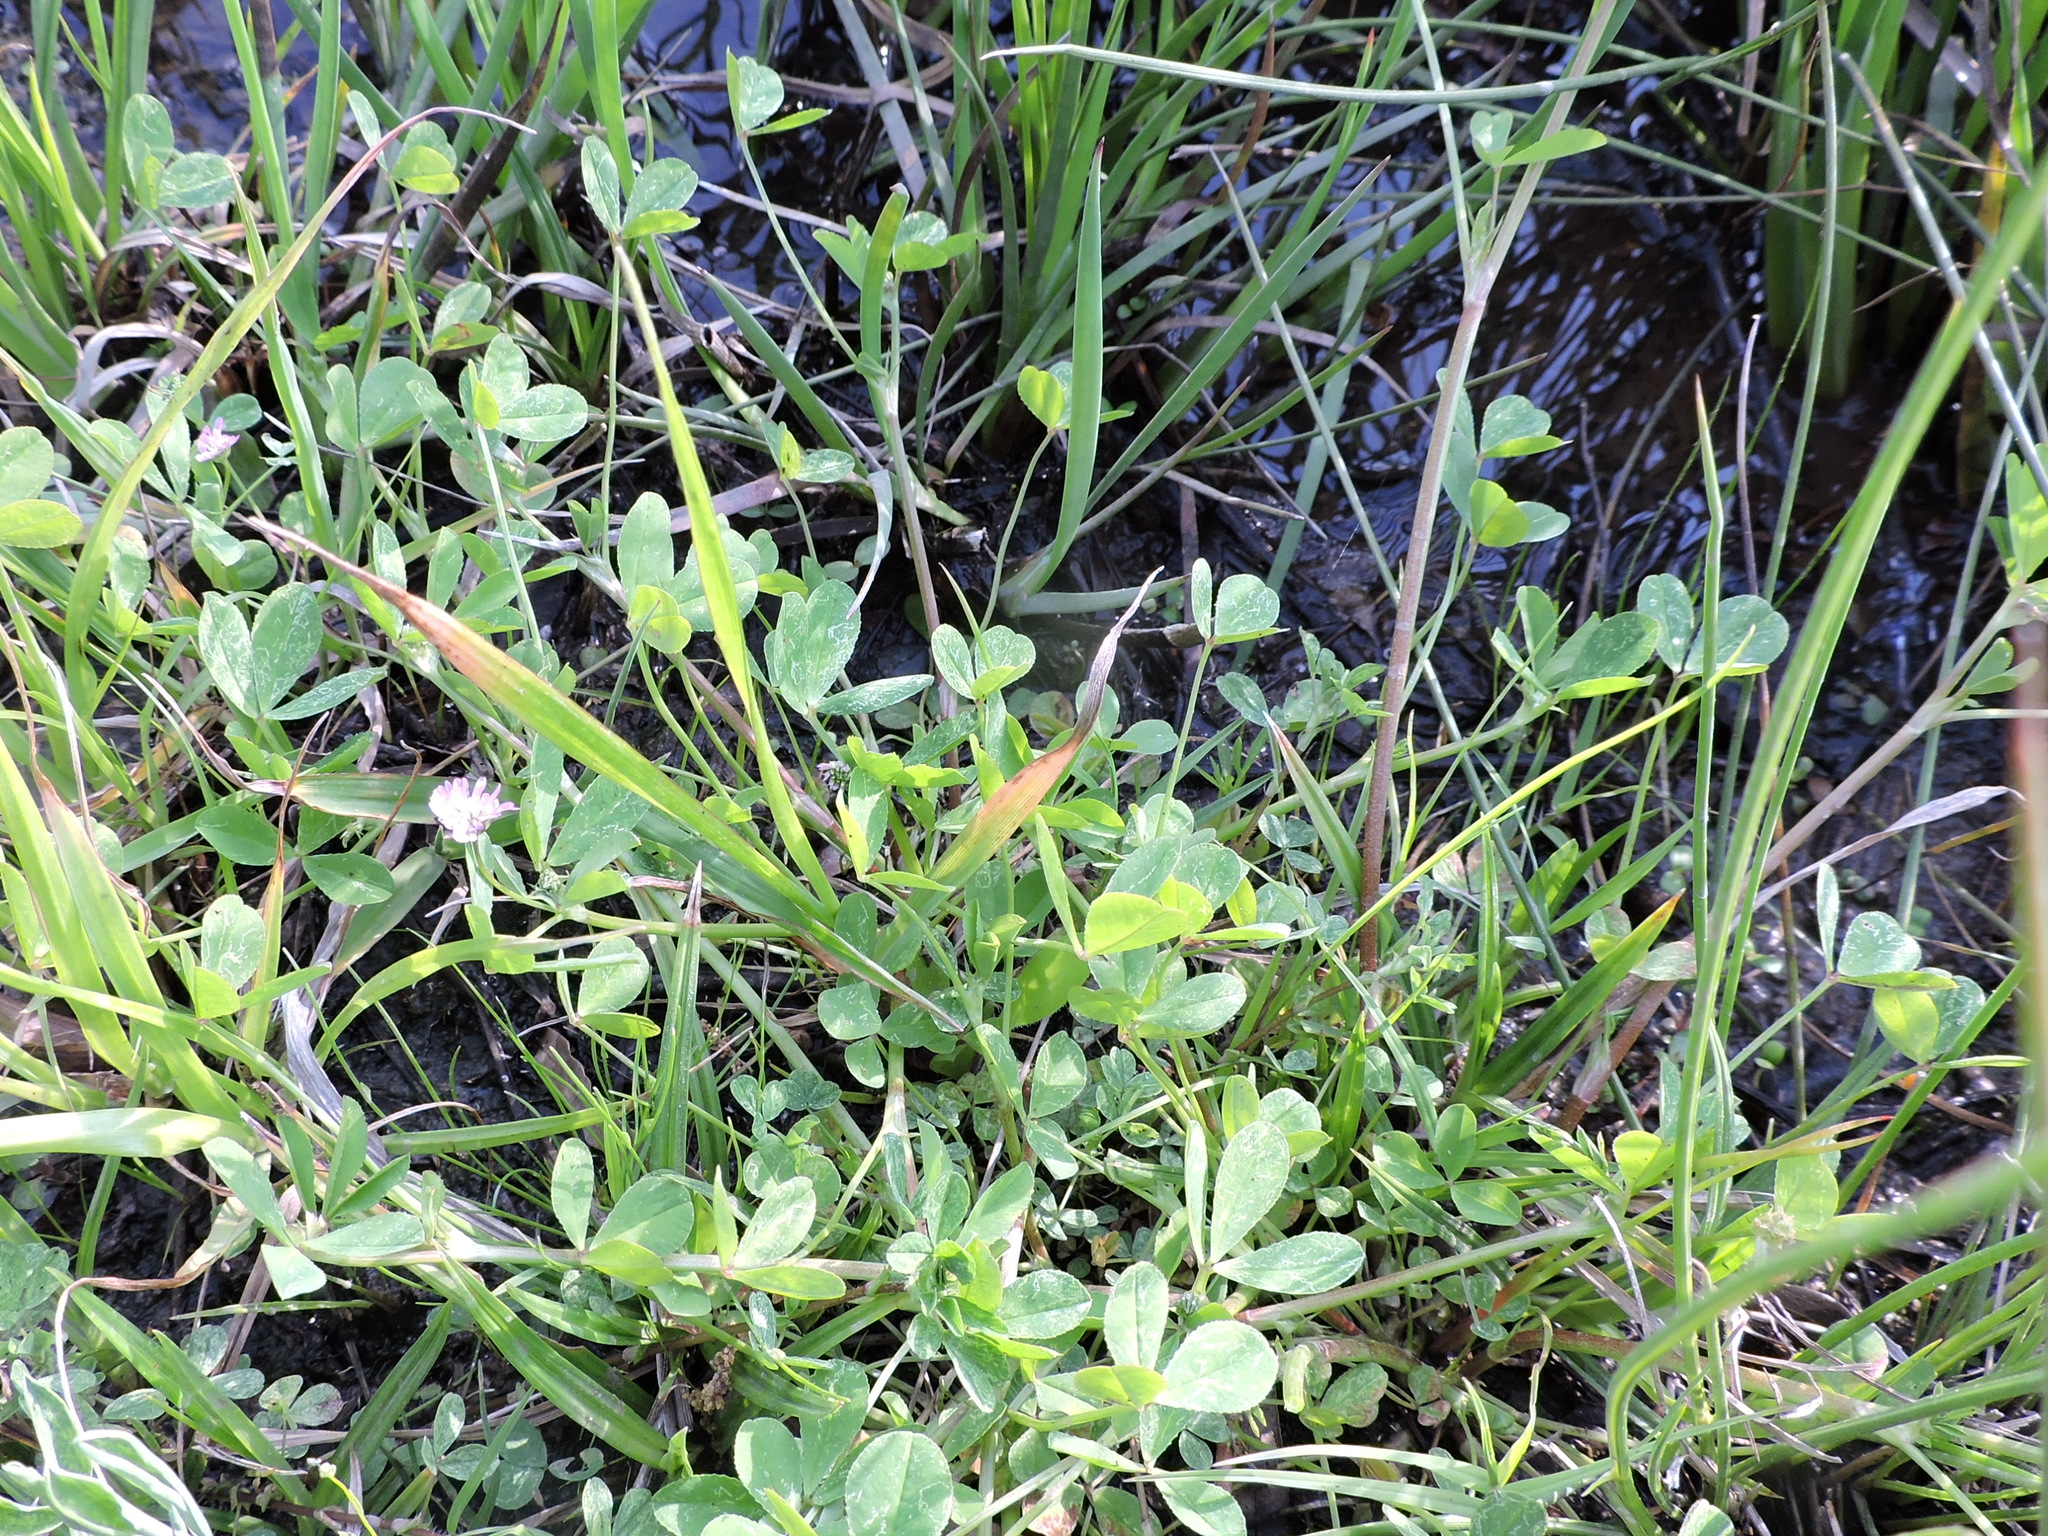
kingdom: Plantae
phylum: Tracheophyta
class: Magnoliopsida
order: Fabales
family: Fabaceae
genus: Trifolium
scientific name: Trifolium resupinatum
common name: Reversed clover
